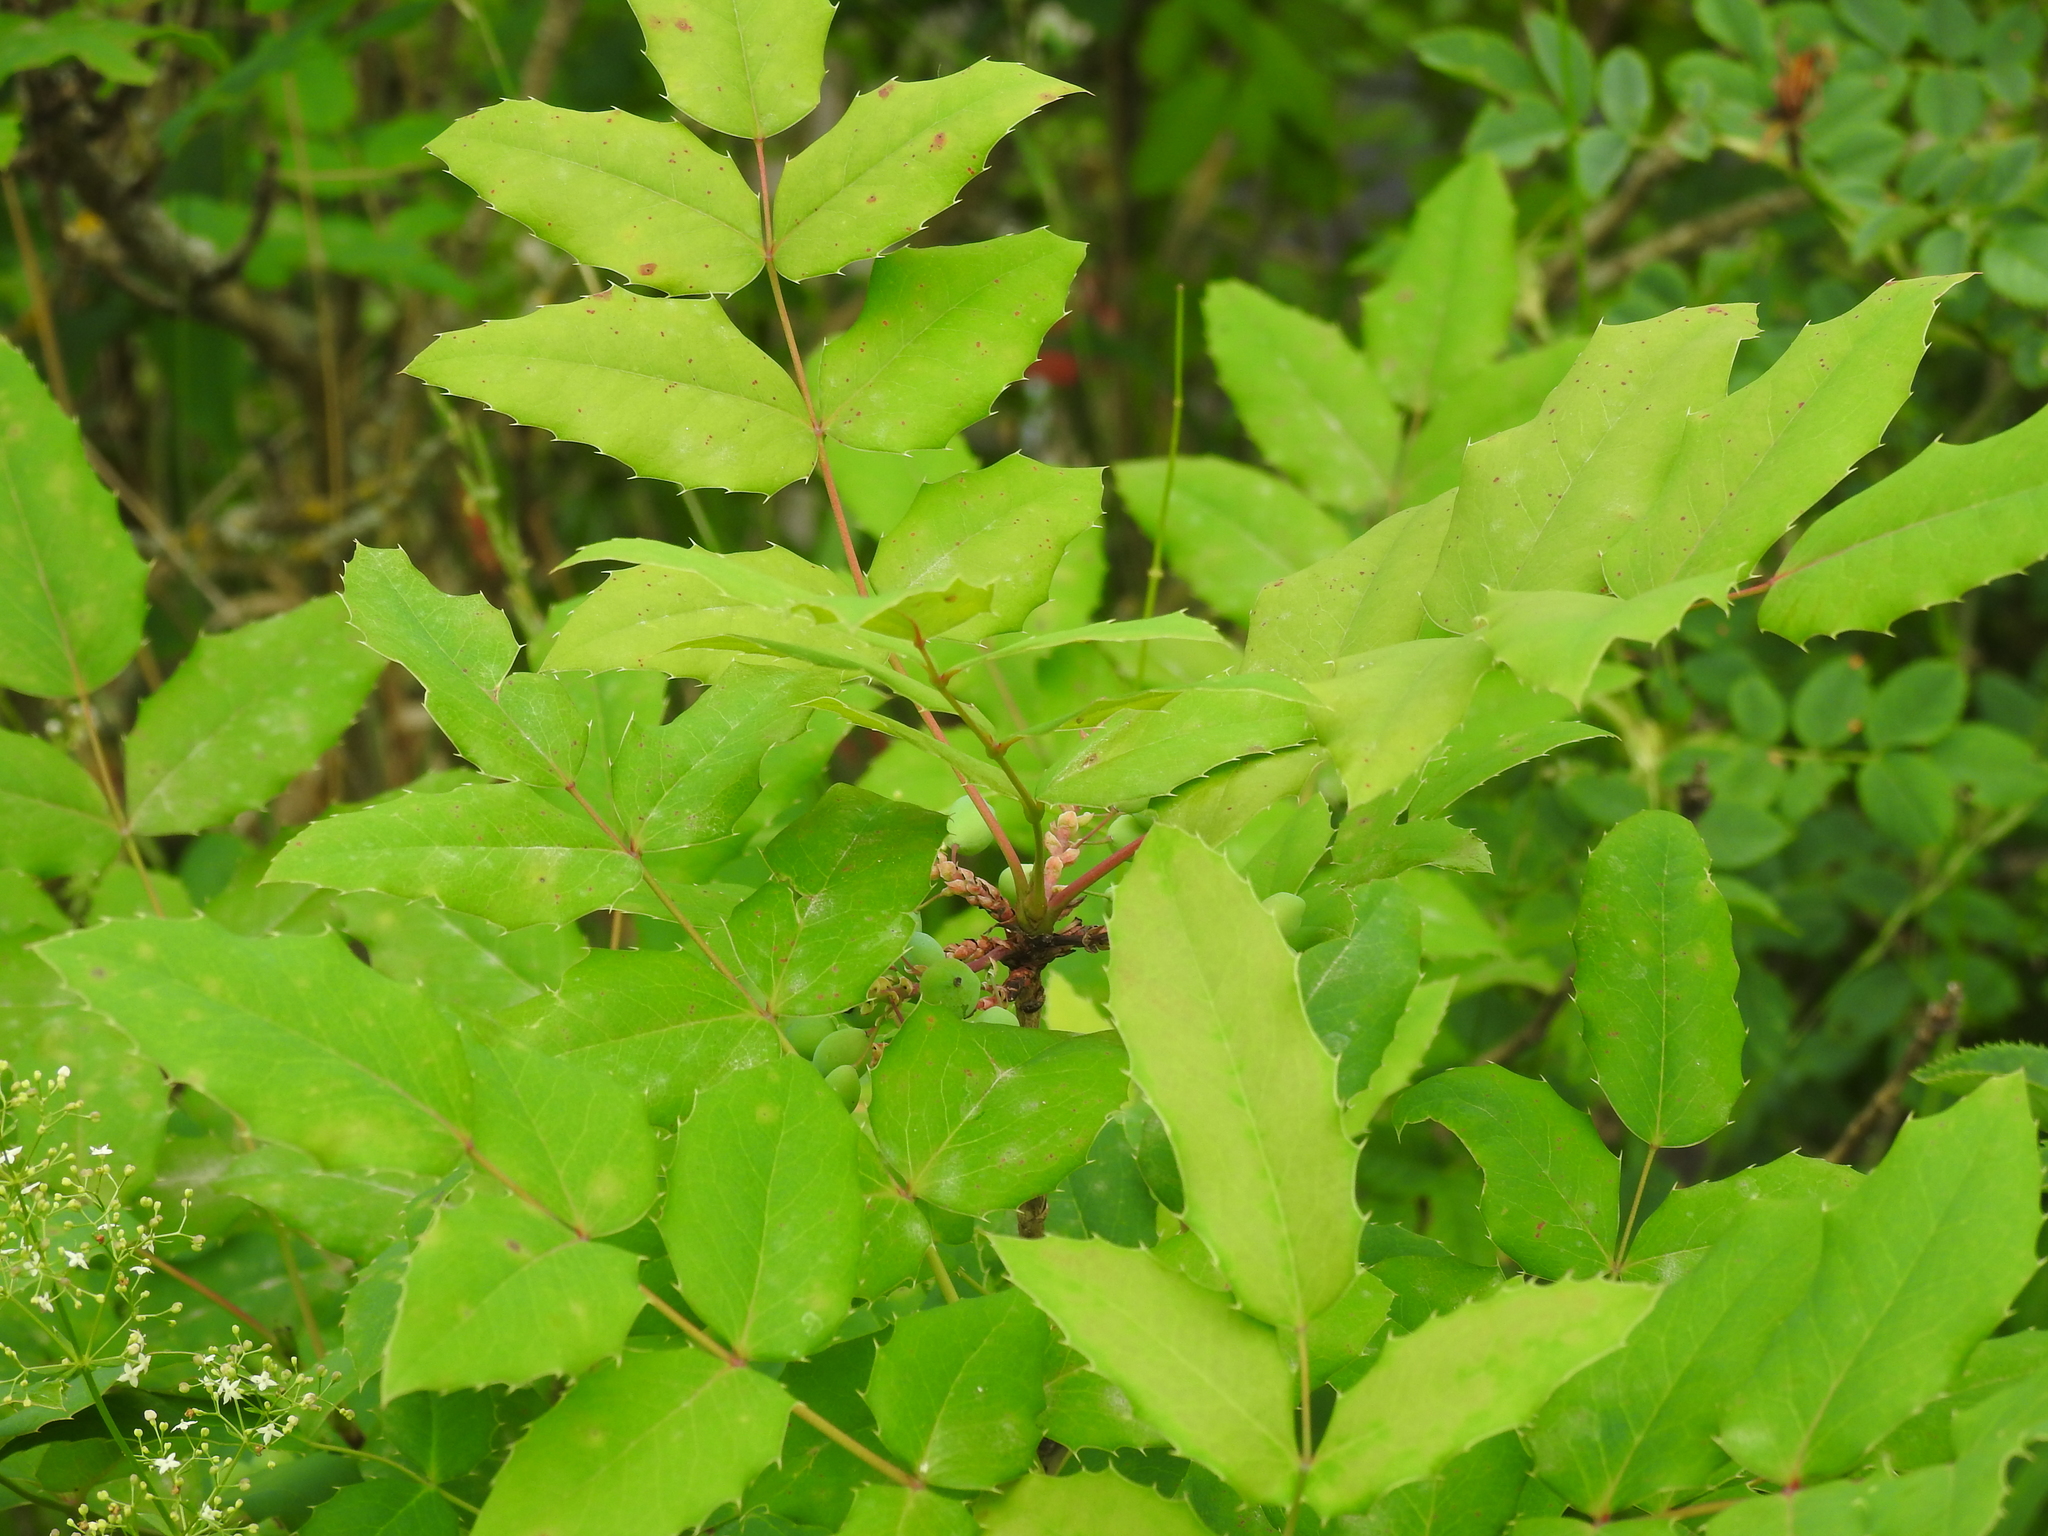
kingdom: Plantae
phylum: Tracheophyta
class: Magnoliopsida
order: Ranunculales
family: Berberidaceae
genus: Mahonia
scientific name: Mahonia aquifolium
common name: Oregon-grape
